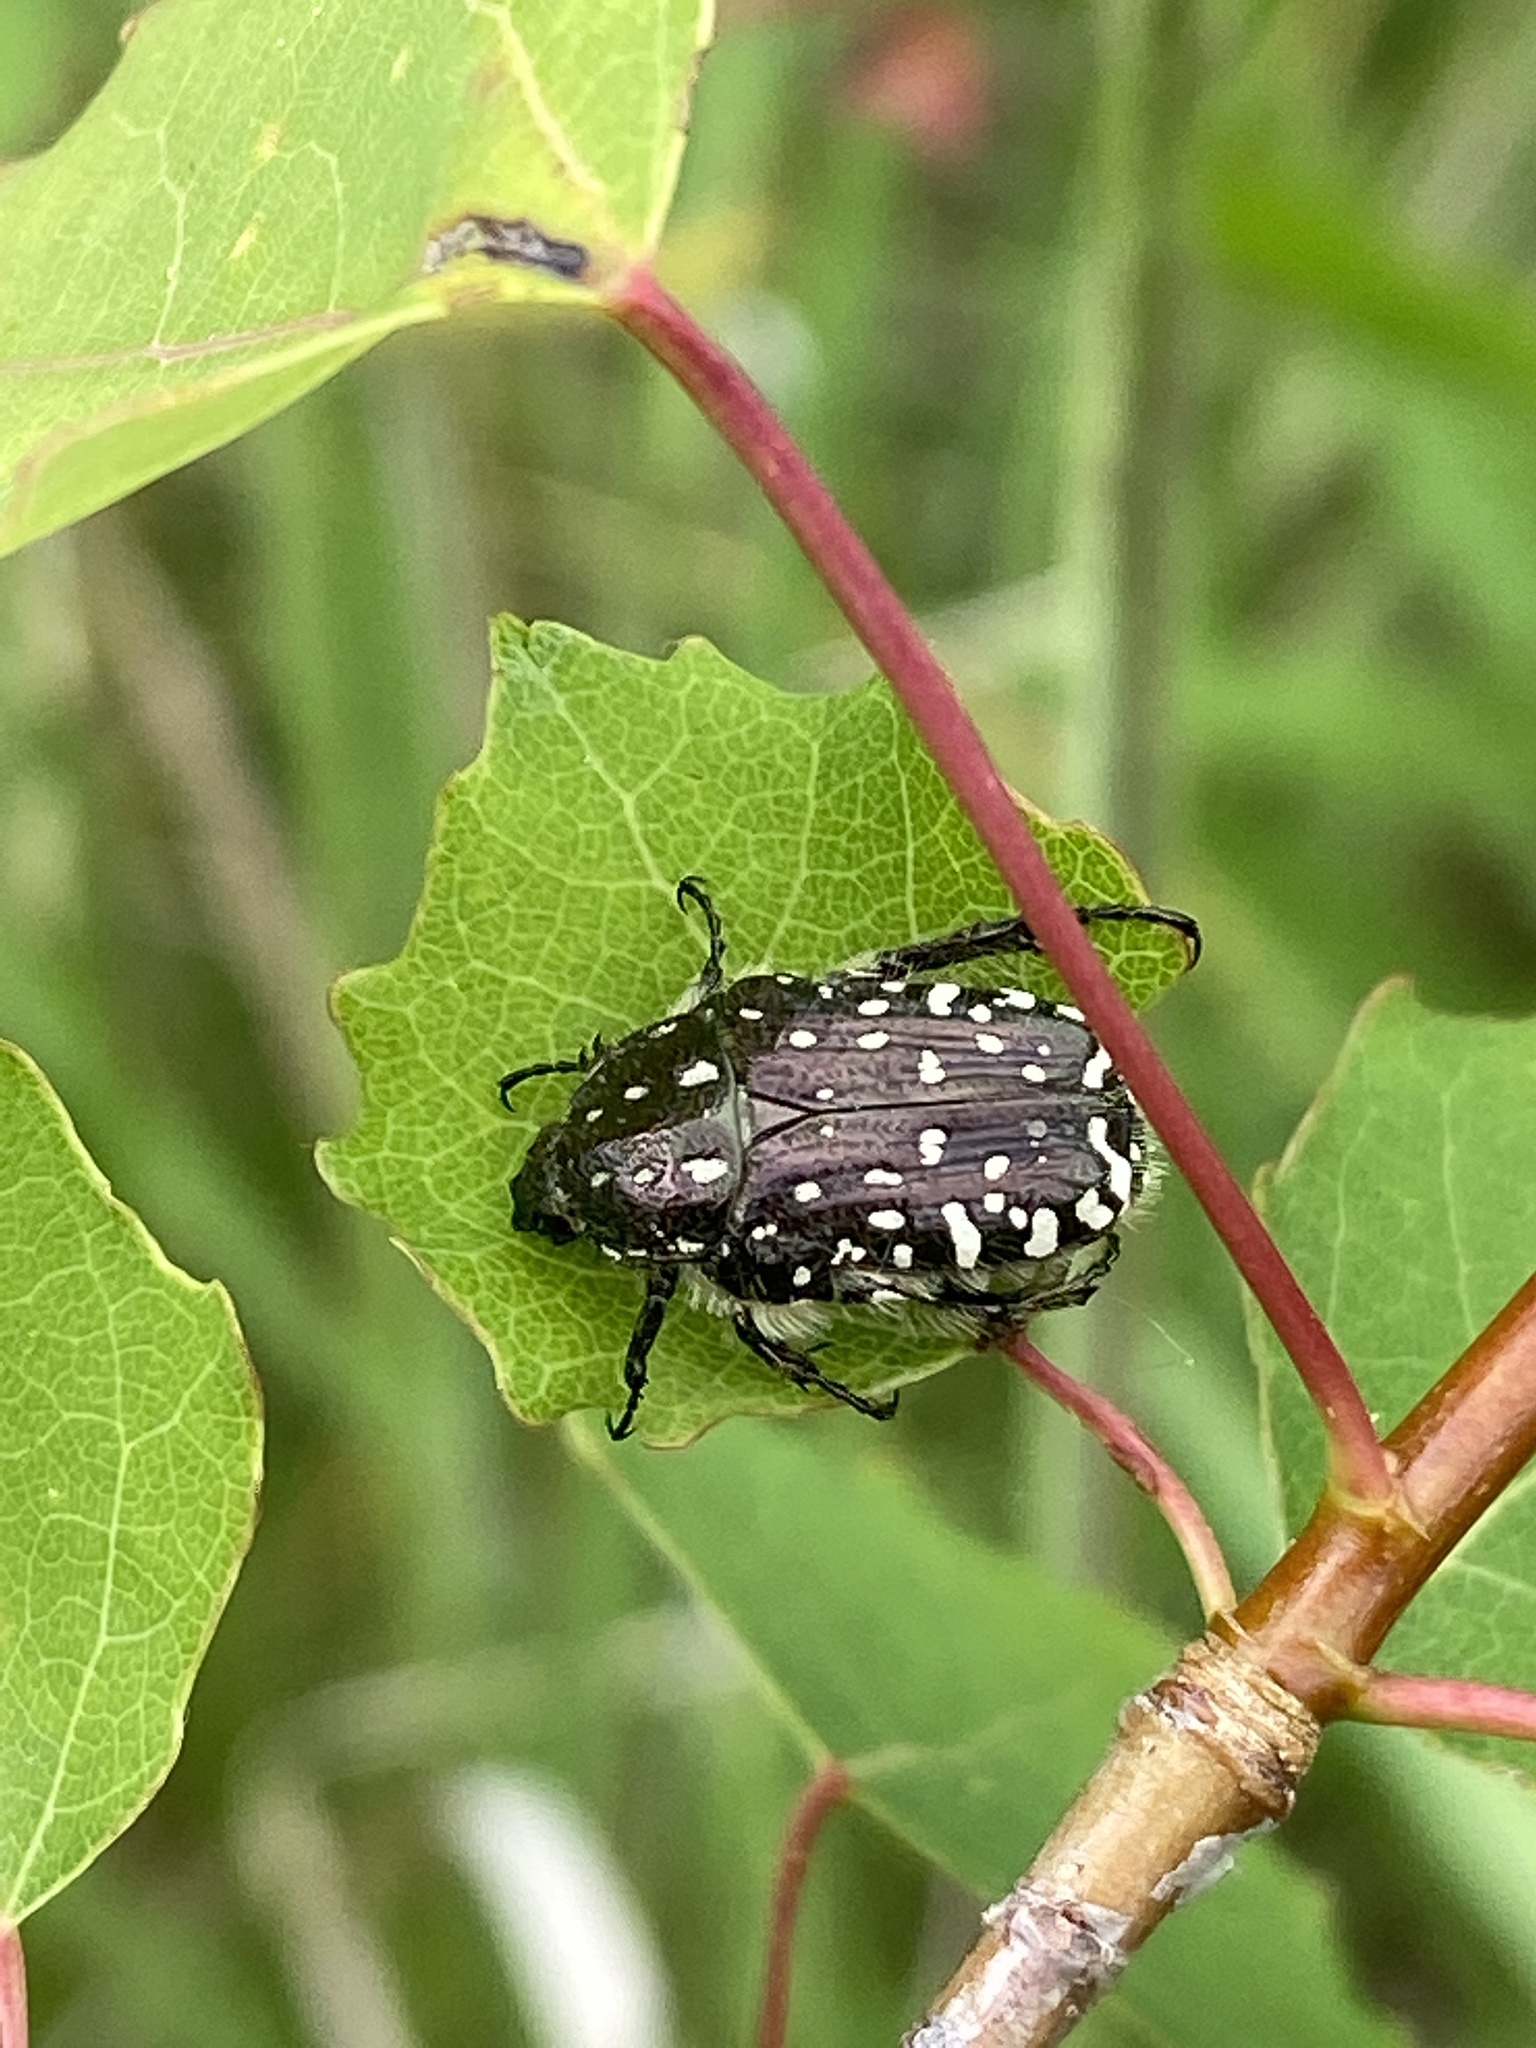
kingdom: Animalia
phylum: Arthropoda
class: Insecta
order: Coleoptera
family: Scarabaeidae
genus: Oxythyrea
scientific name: Oxythyrea funesta
